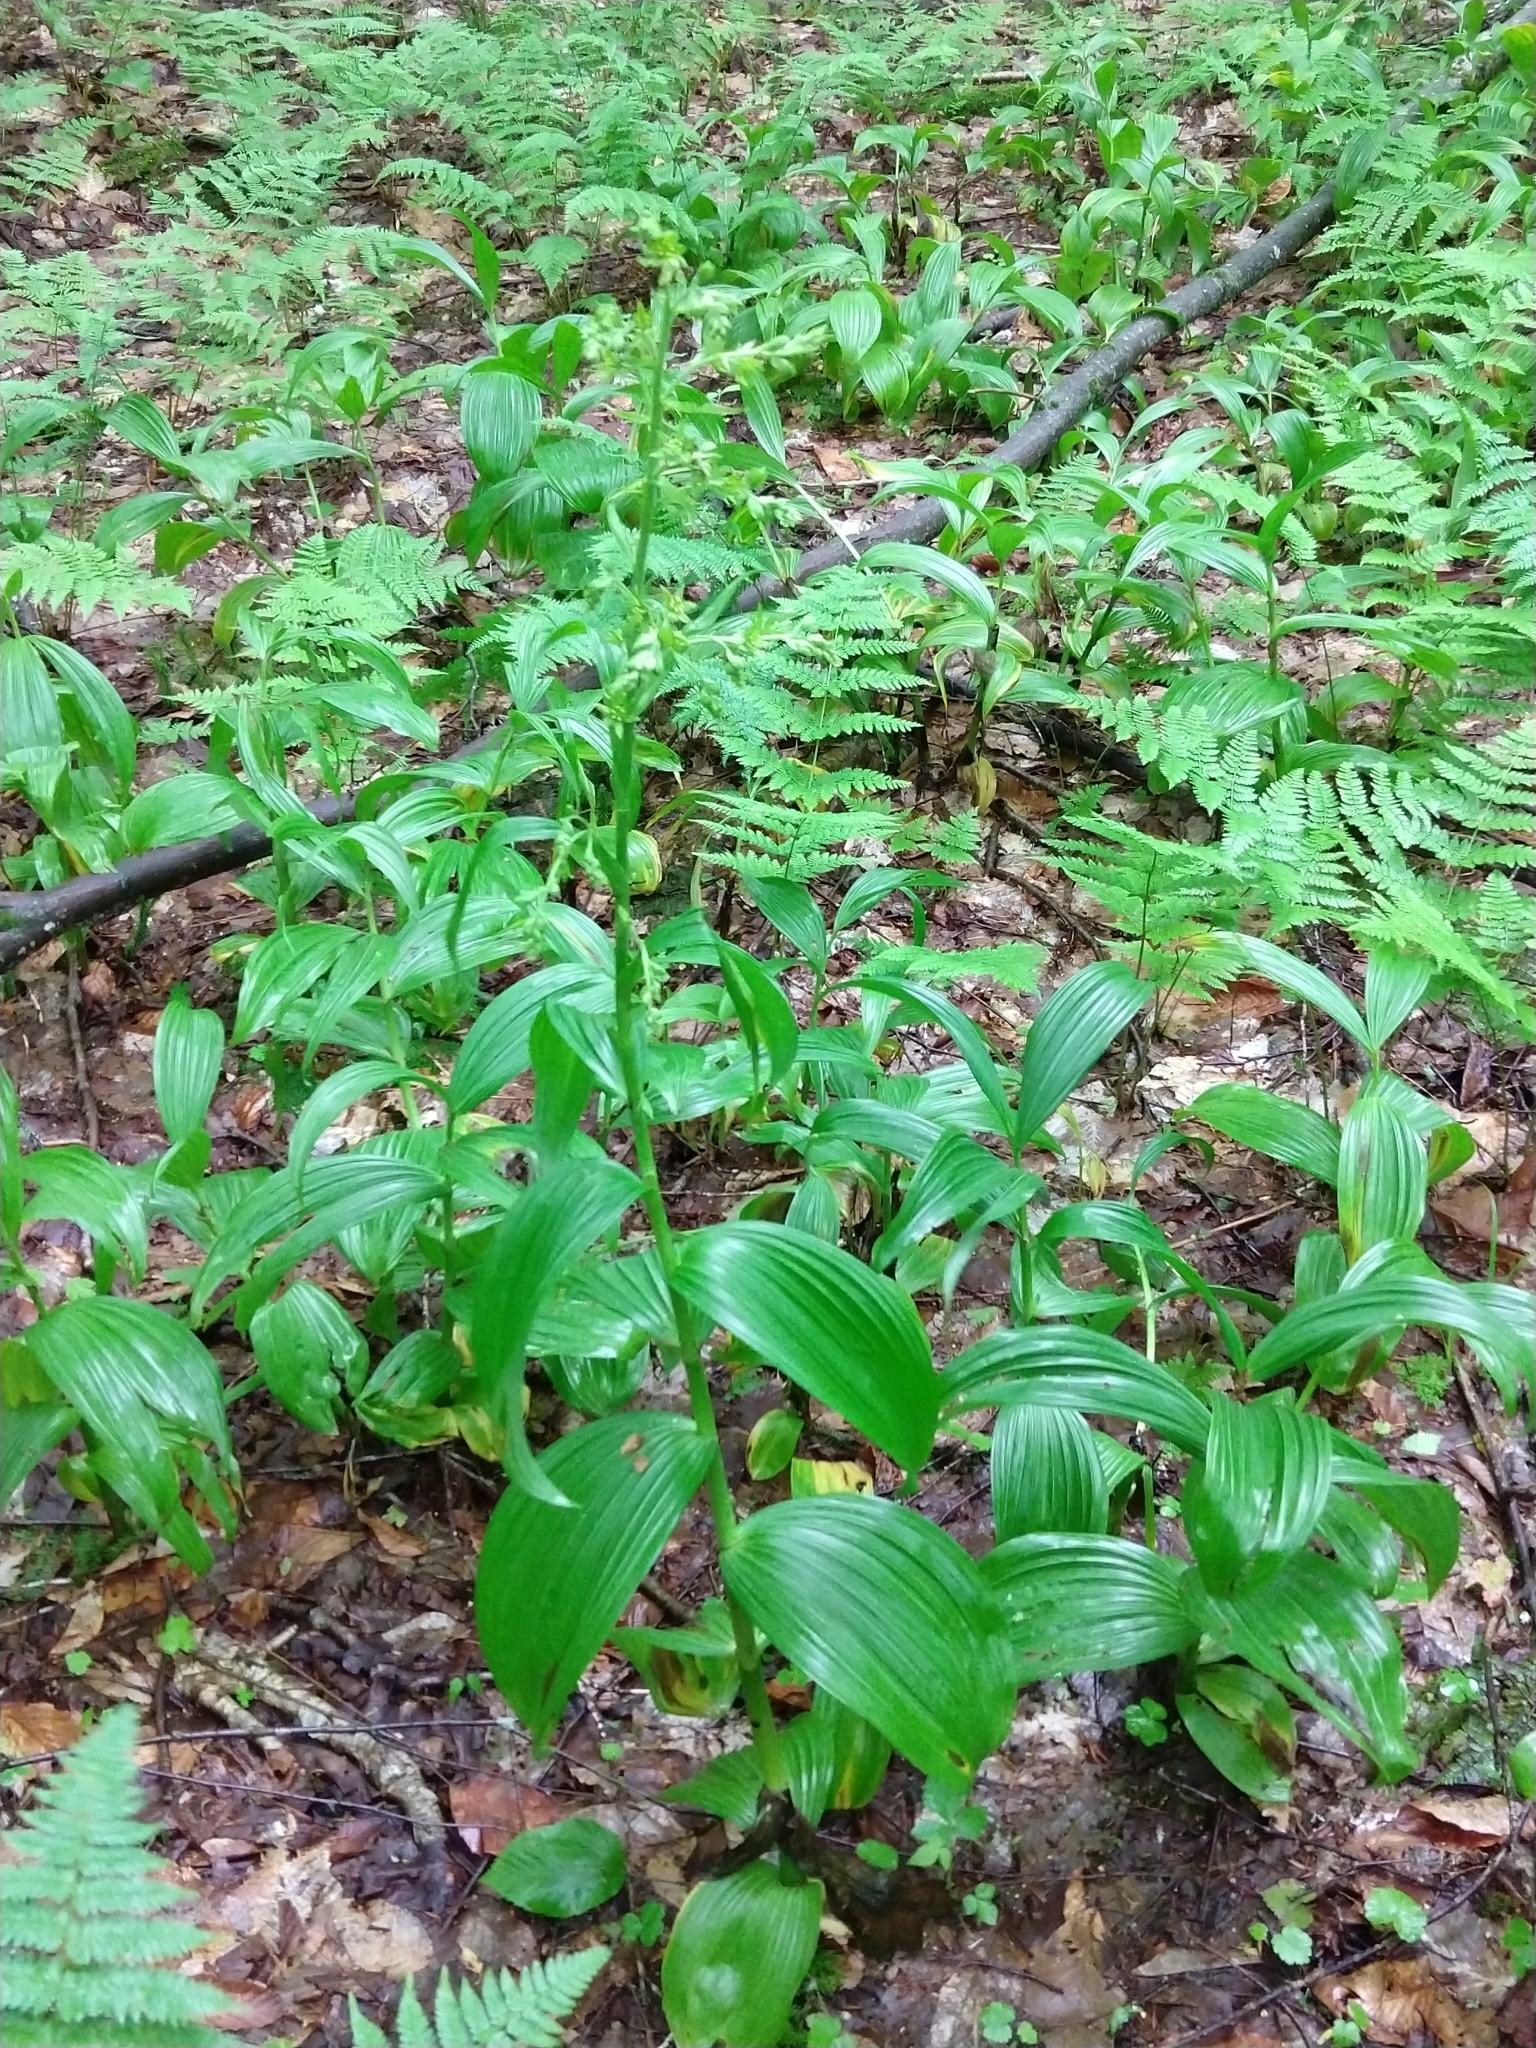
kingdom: Plantae
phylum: Tracheophyta
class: Liliopsida
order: Liliales
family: Melanthiaceae
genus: Veratrum
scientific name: Veratrum viride
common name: American false hellebore
